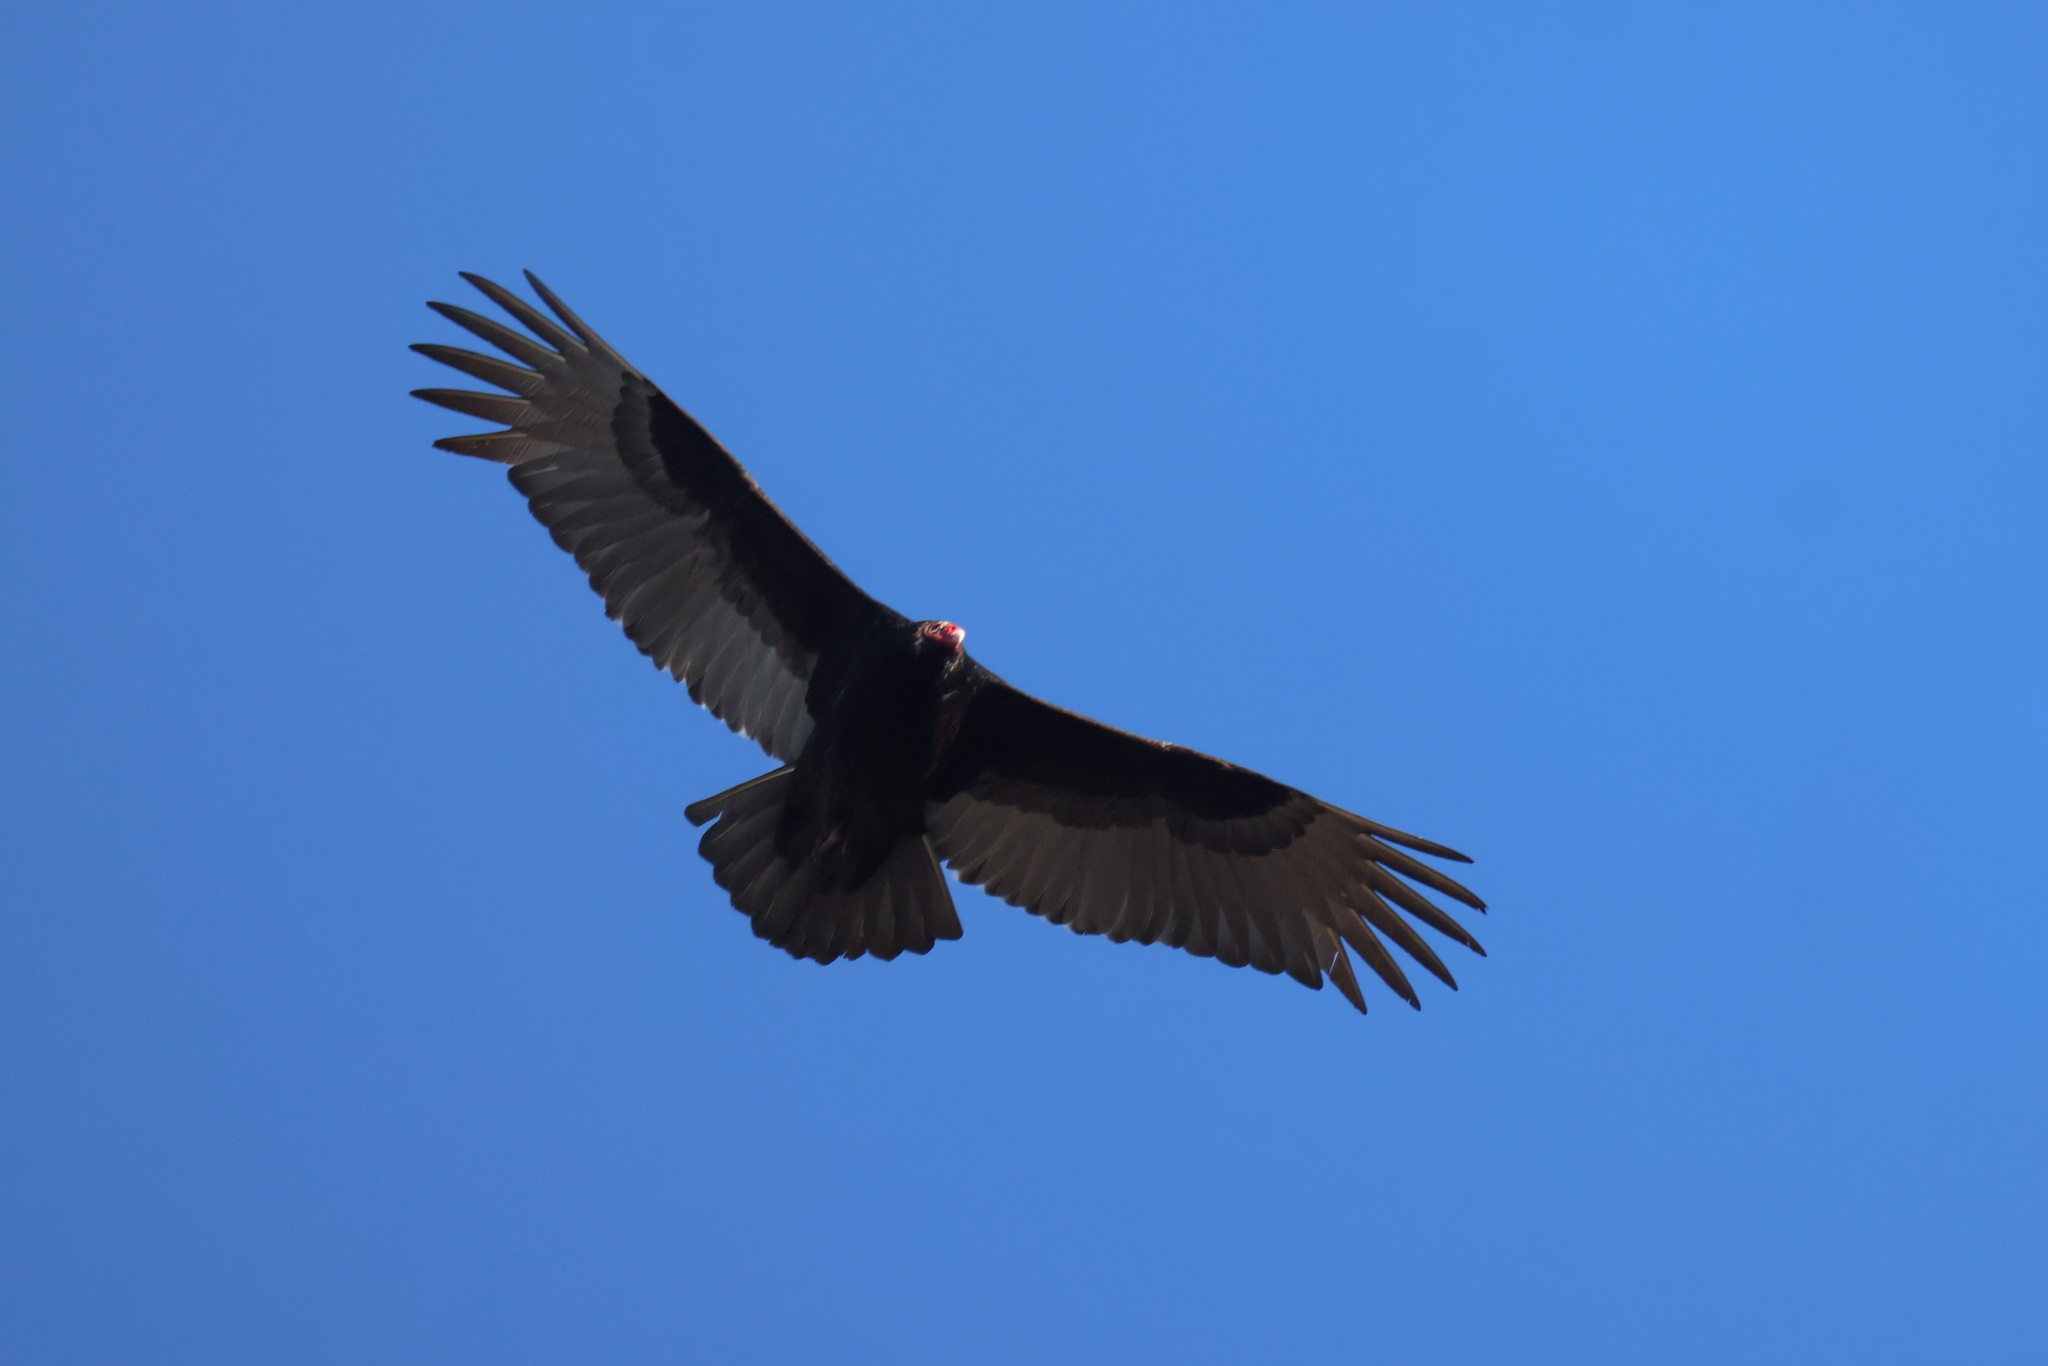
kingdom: Animalia
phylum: Chordata
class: Aves
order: Accipitriformes
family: Cathartidae
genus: Cathartes
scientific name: Cathartes aura
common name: Turkey vulture
